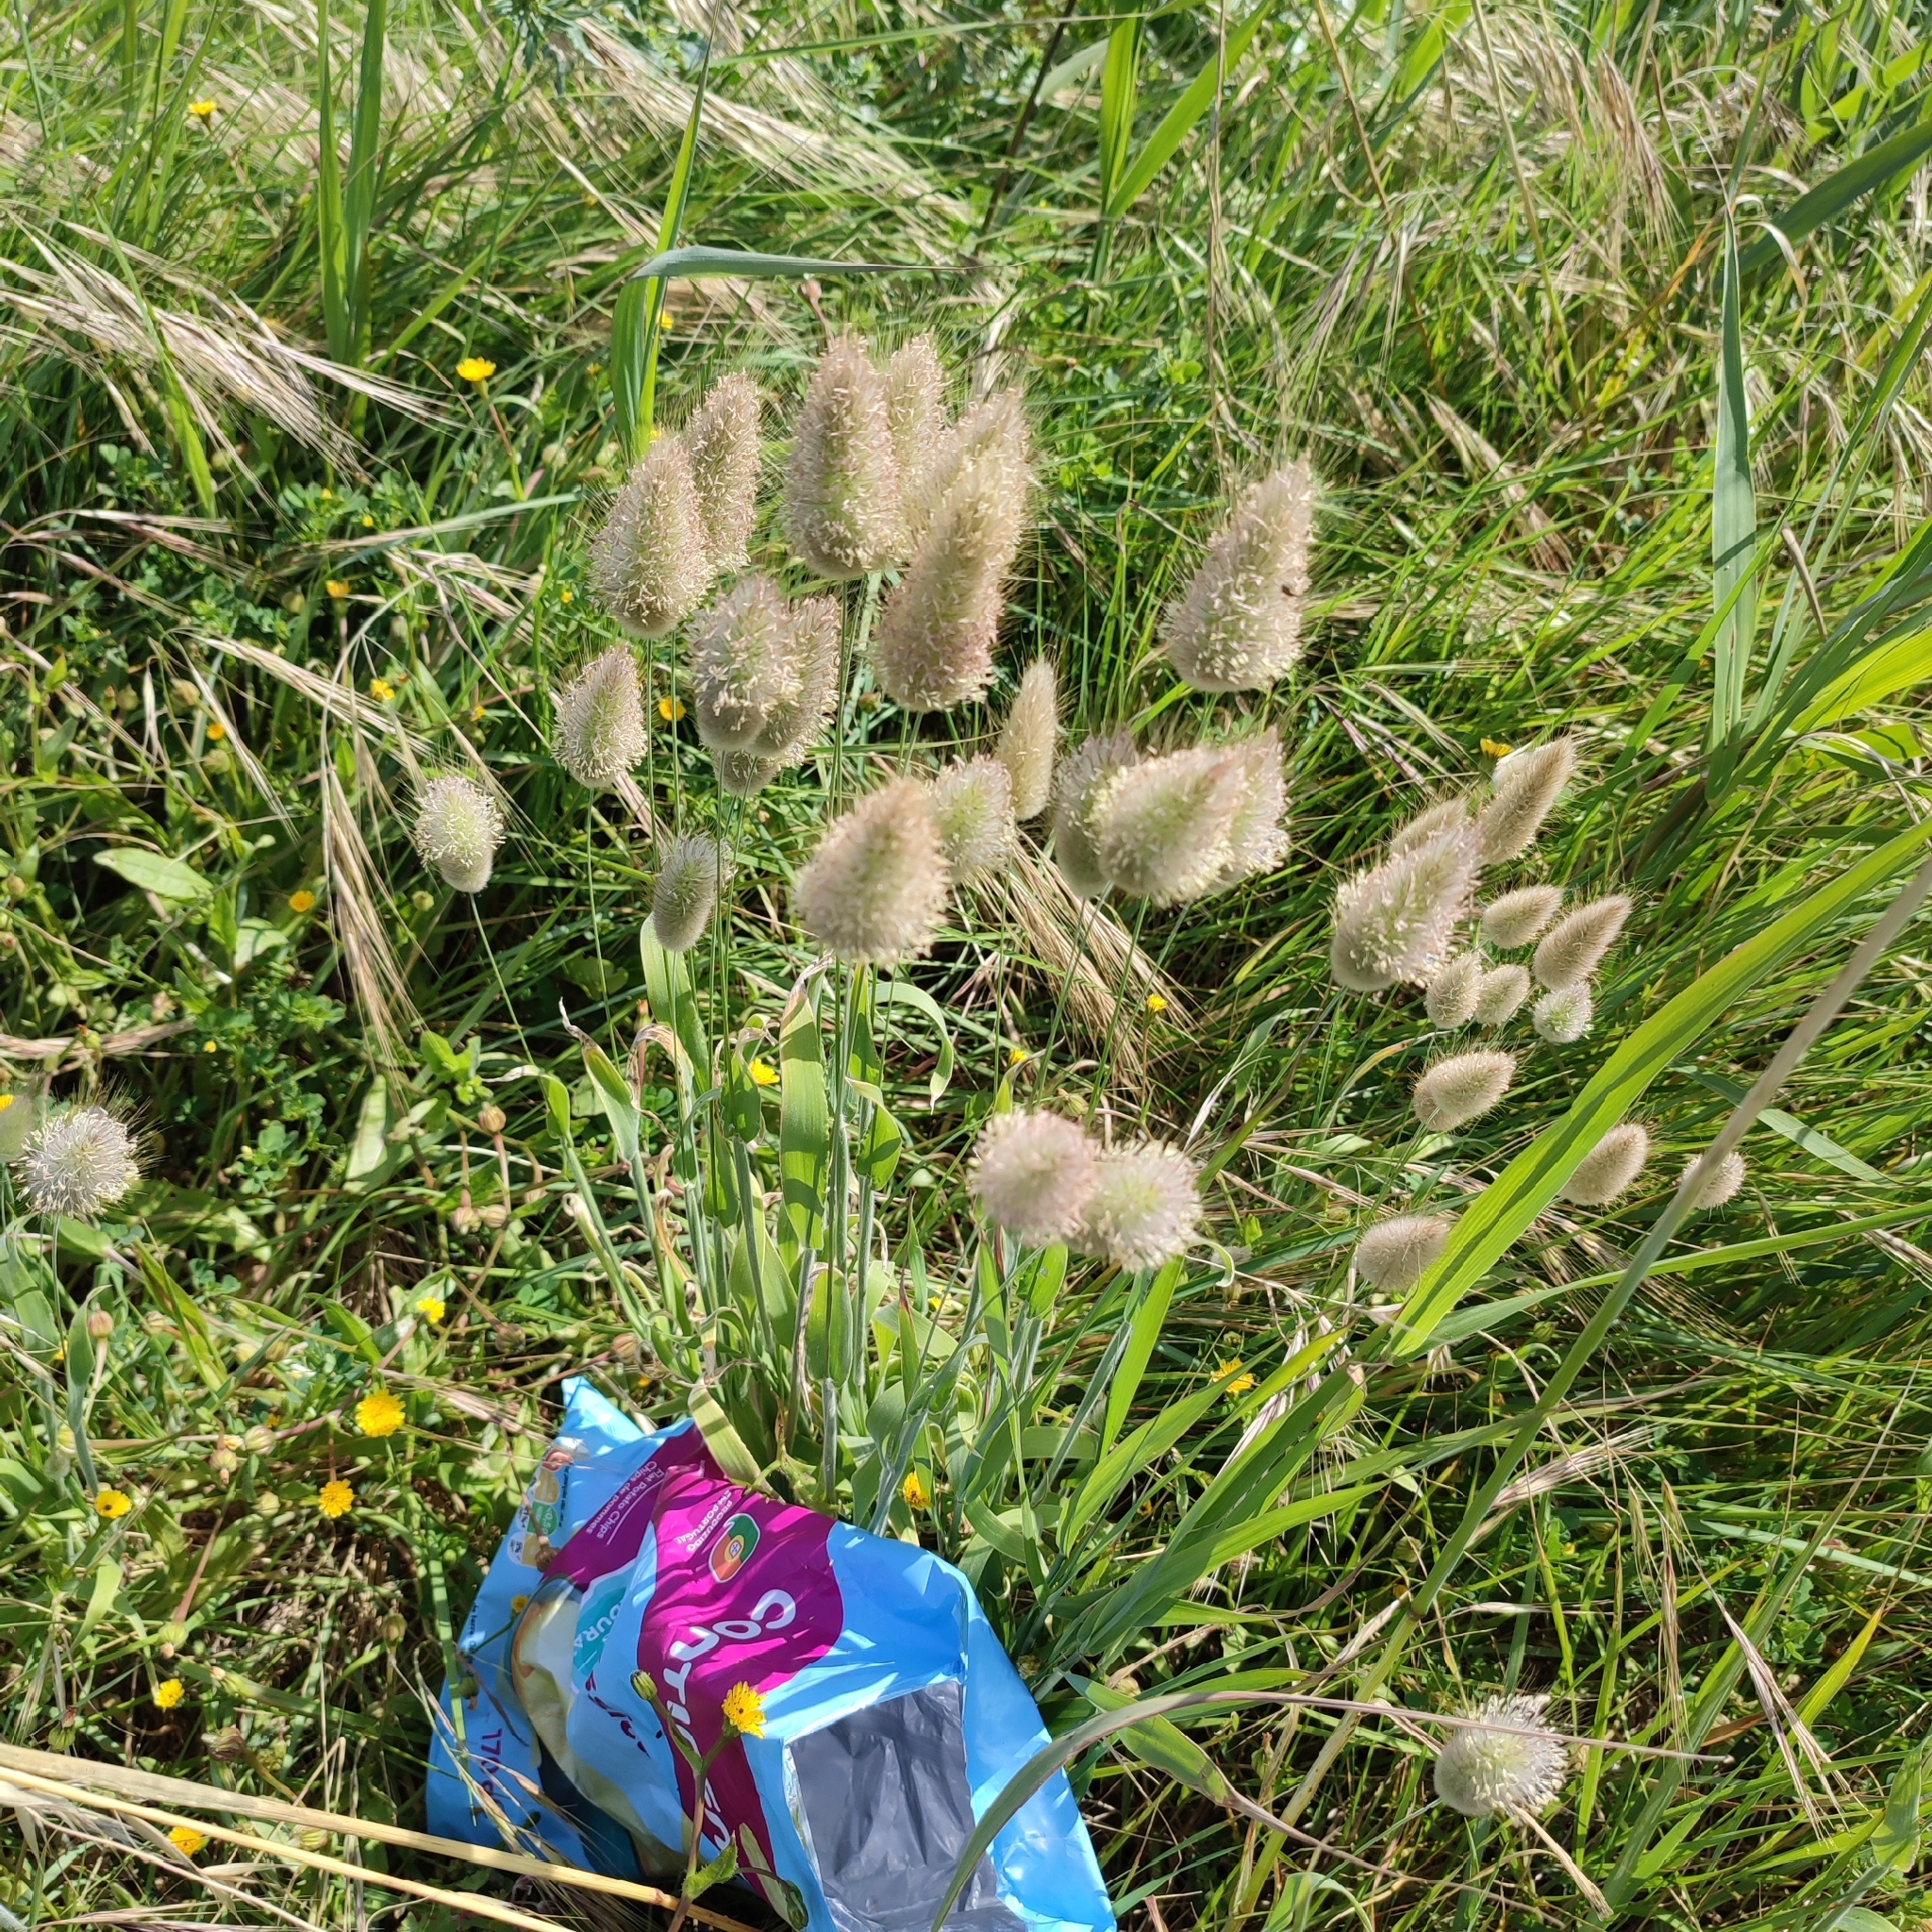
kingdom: Plantae
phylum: Tracheophyta
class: Liliopsida
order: Poales
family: Poaceae
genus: Lagurus
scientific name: Lagurus ovatus
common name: Hare's-tail
